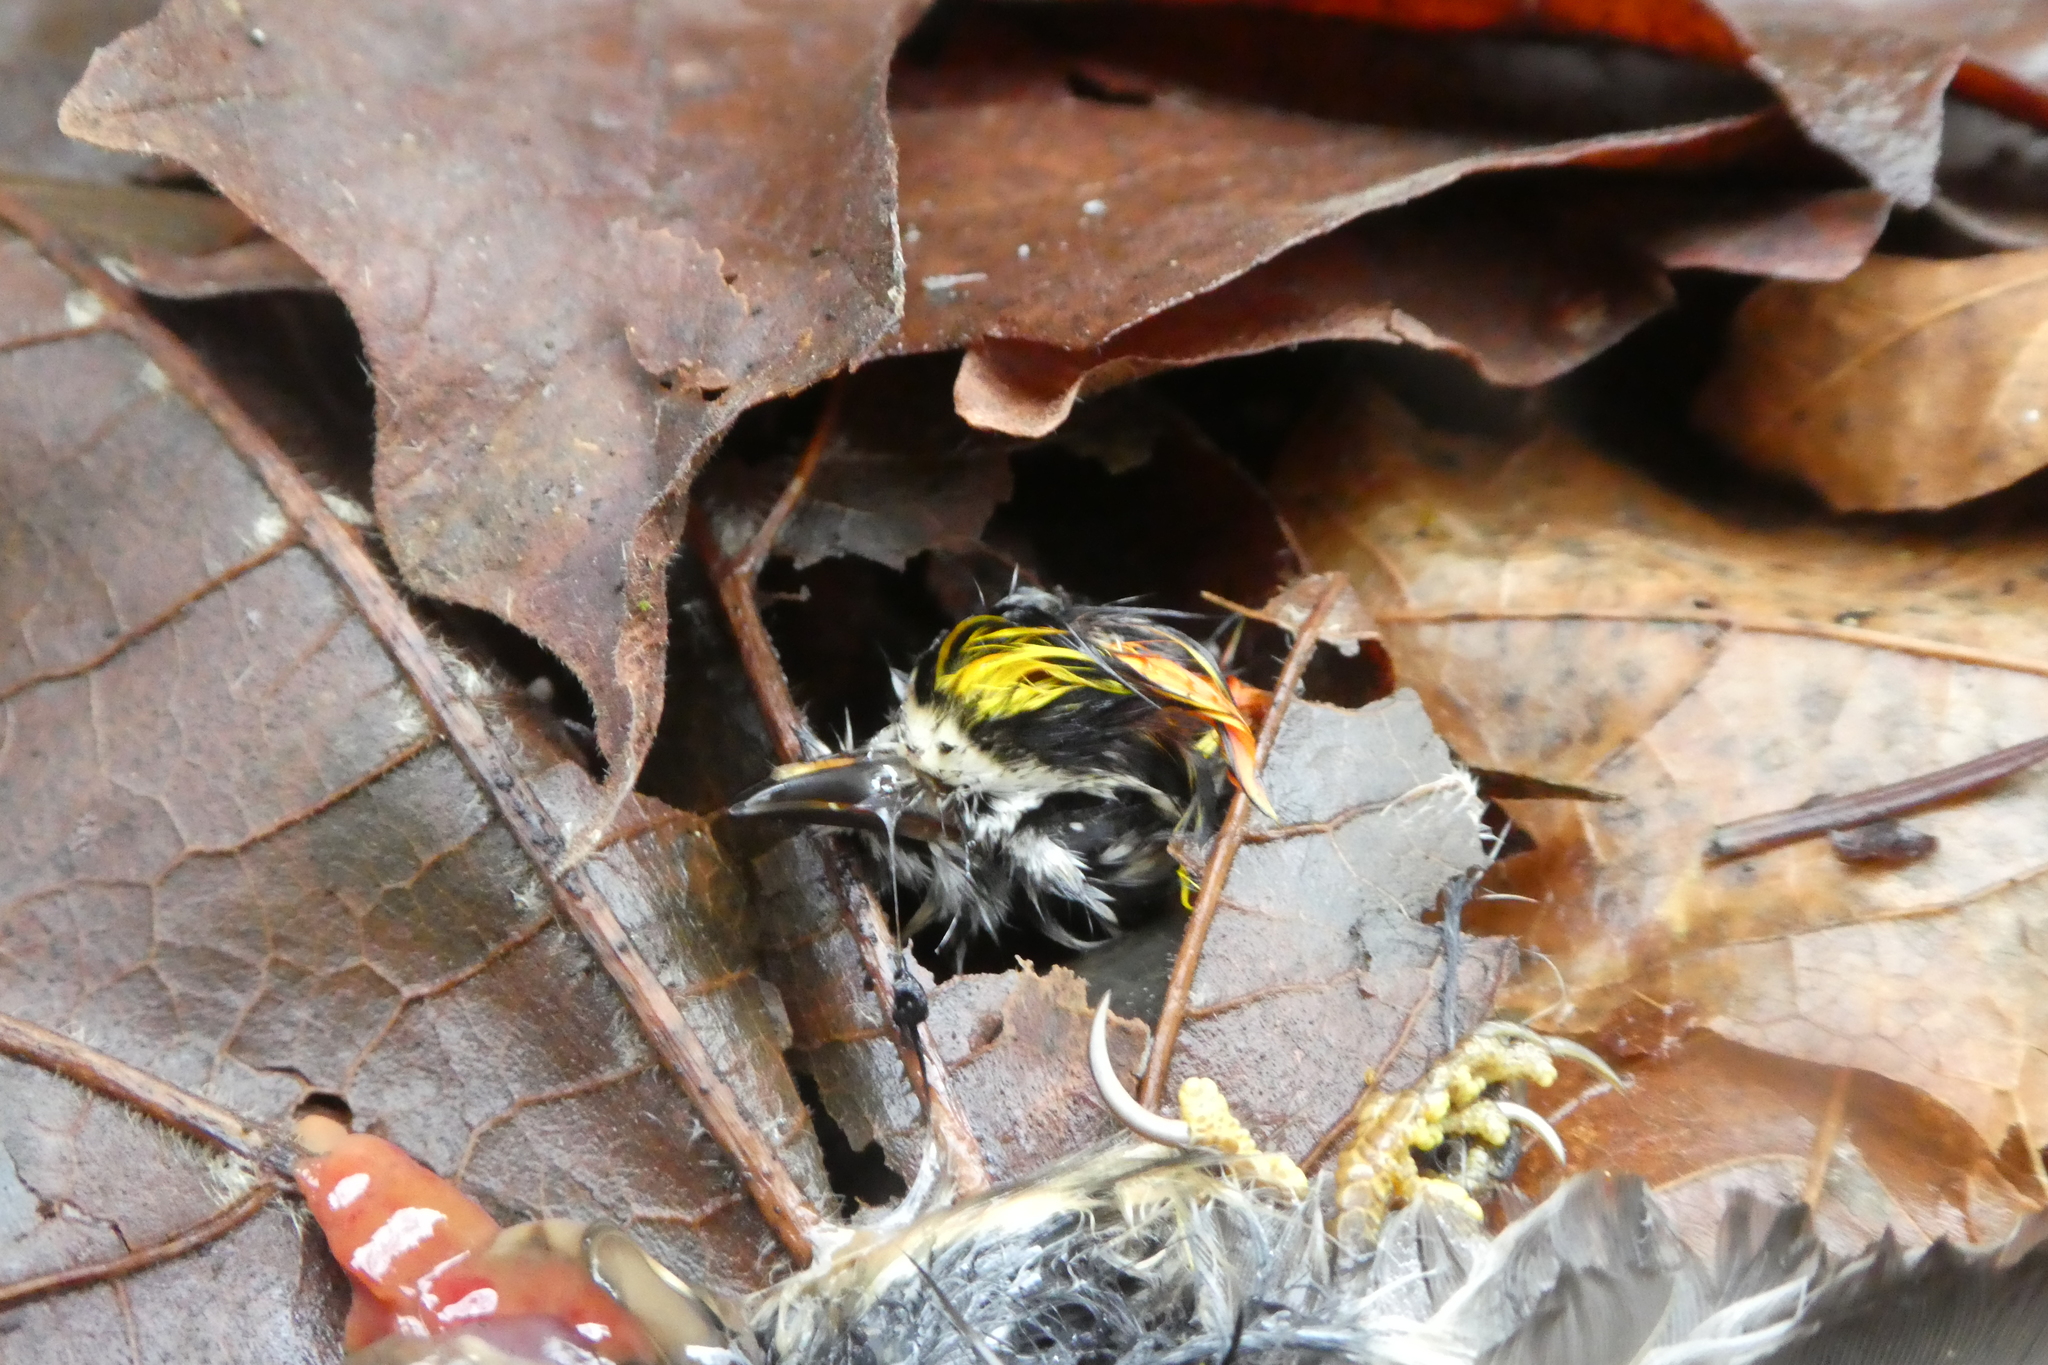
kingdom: Animalia
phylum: Chordata
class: Aves
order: Passeriformes
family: Regulidae
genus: Regulus
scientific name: Regulus satrapa
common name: Golden-crowned kinglet
